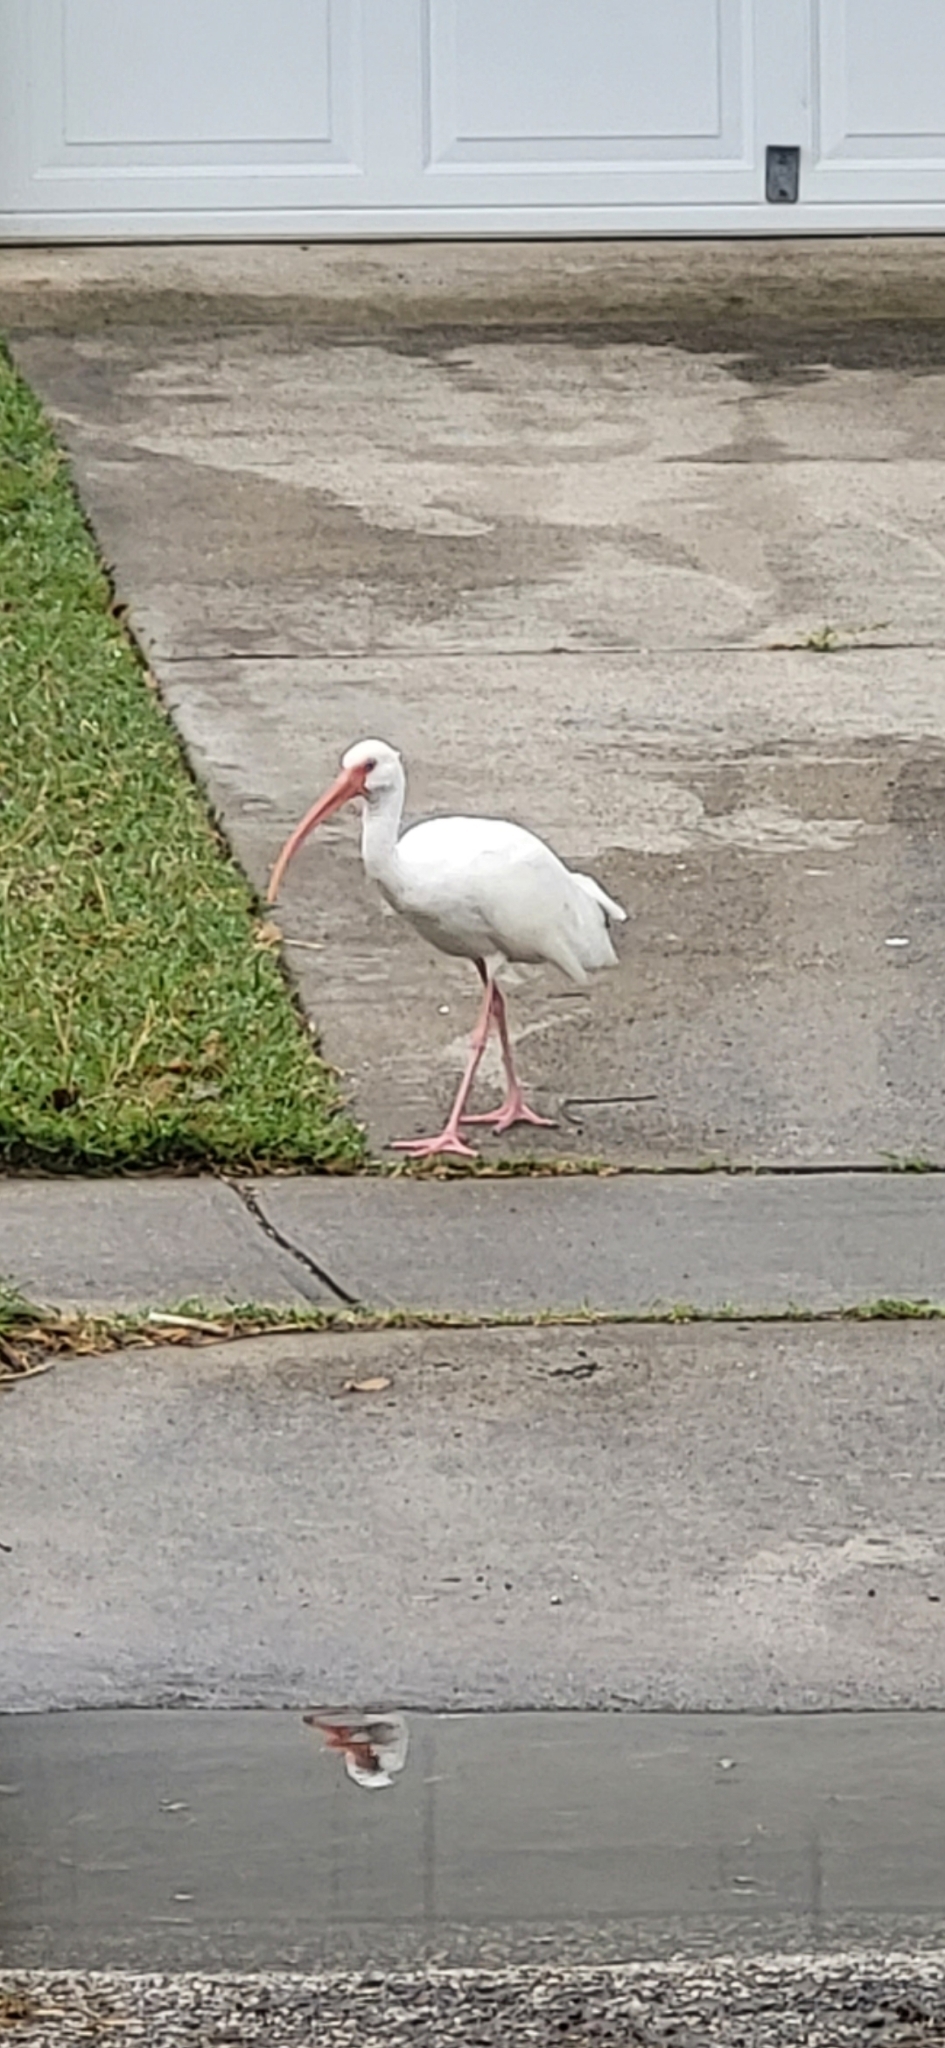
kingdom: Animalia
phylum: Chordata
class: Aves
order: Pelecaniformes
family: Threskiornithidae
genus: Eudocimus
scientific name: Eudocimus albus
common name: White ibis
